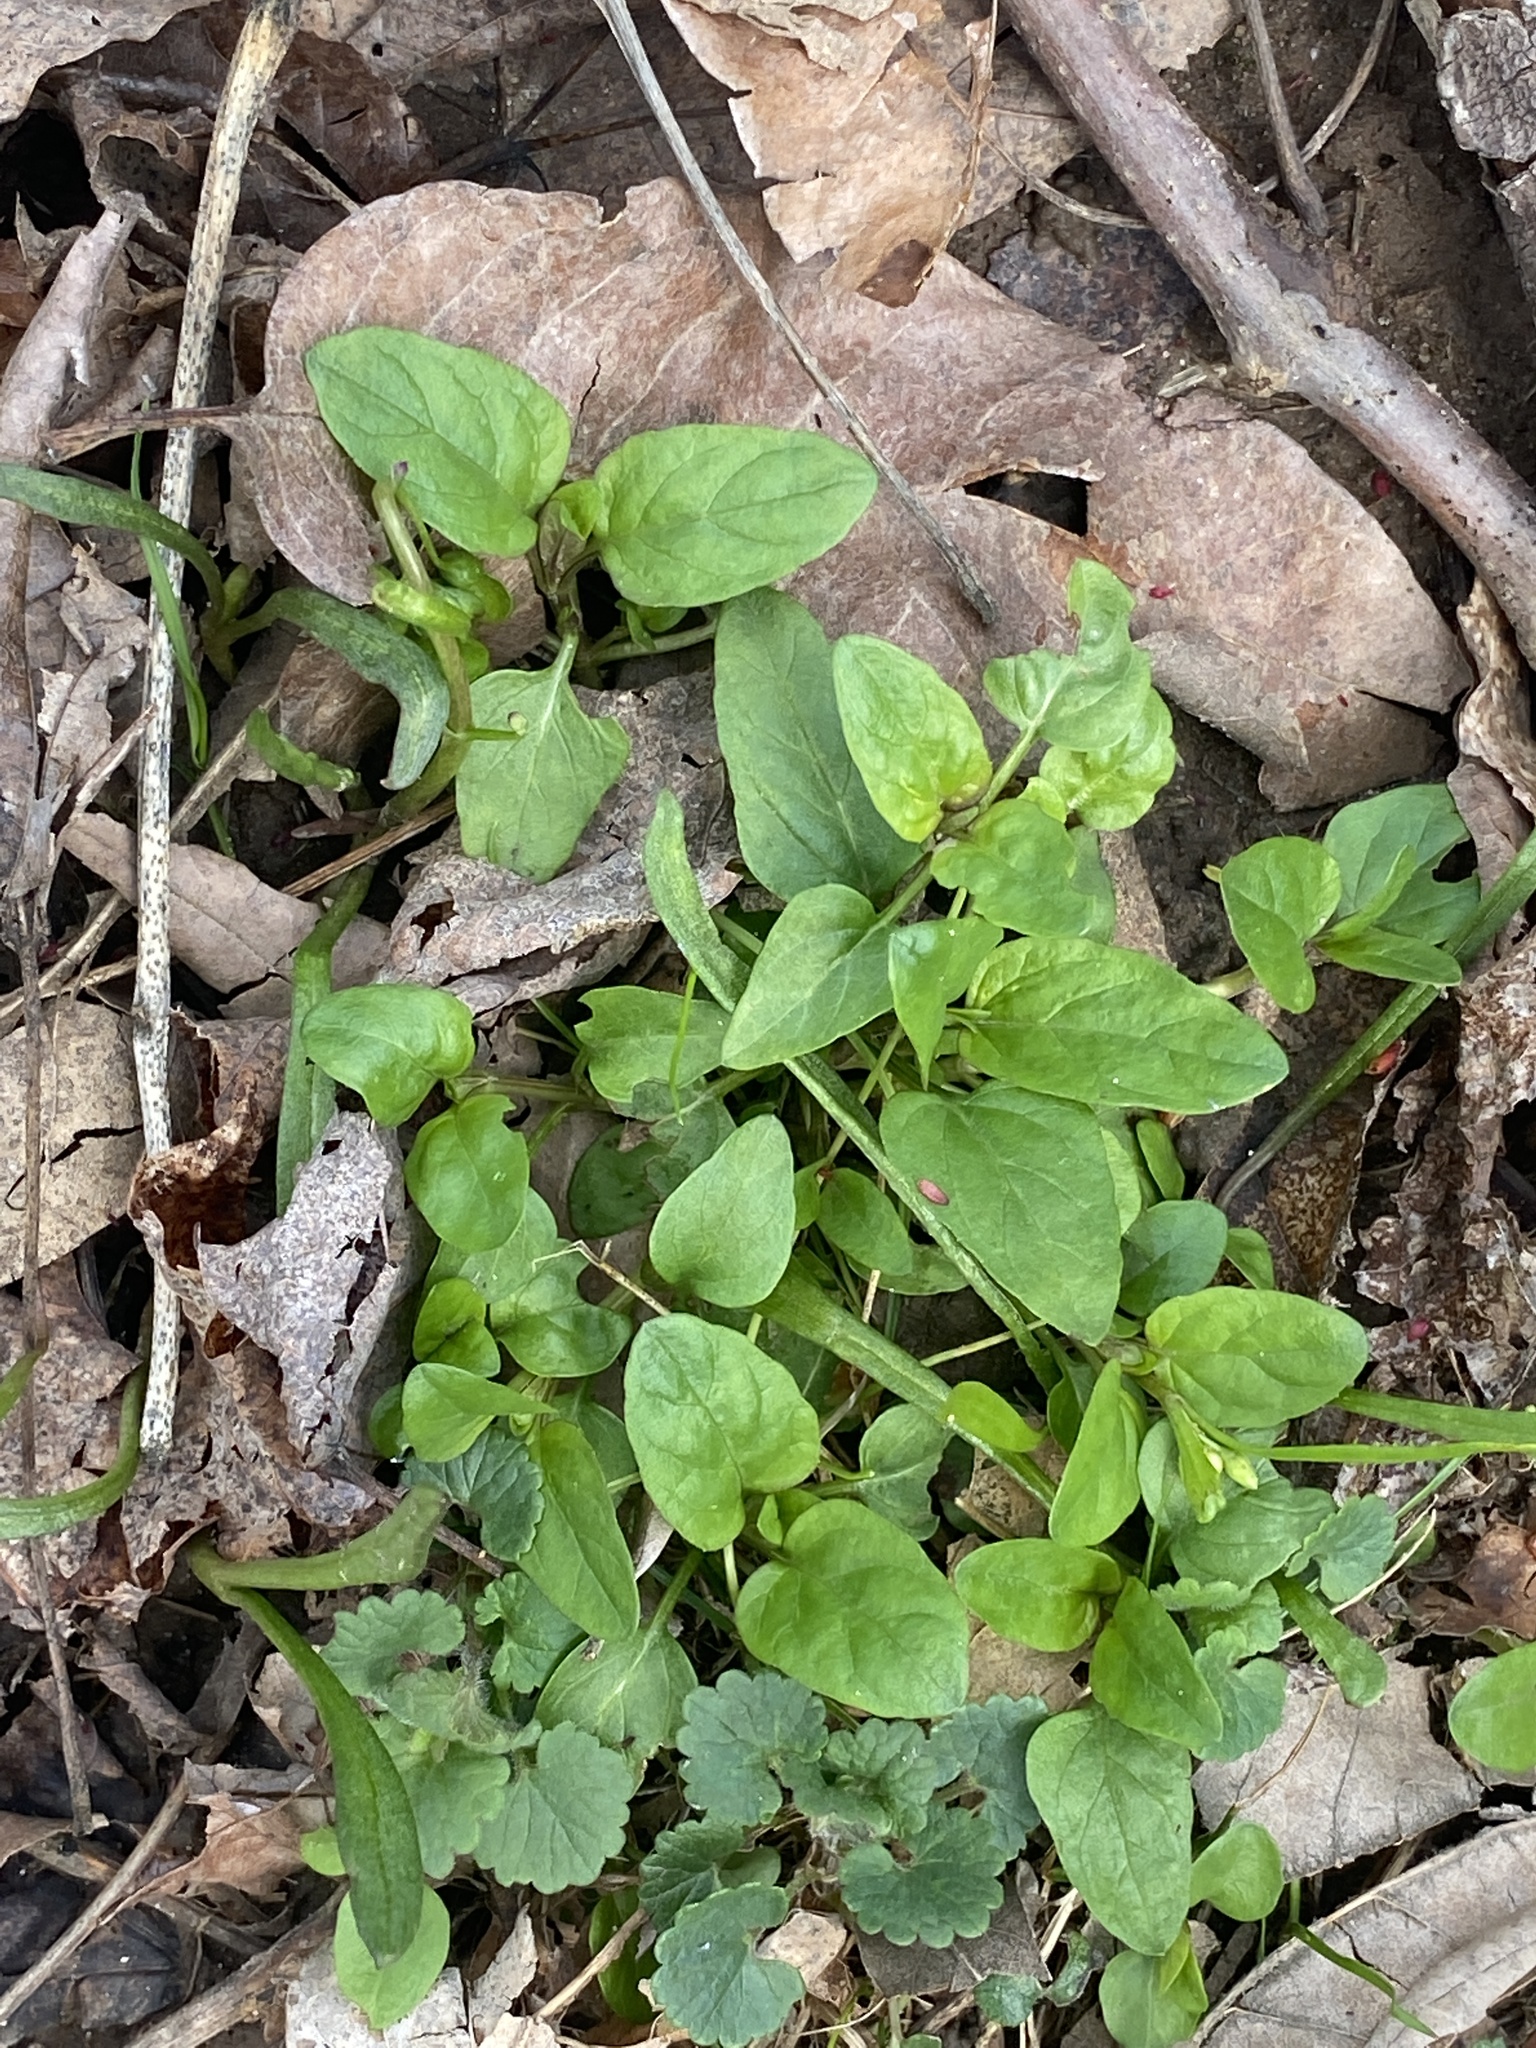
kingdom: Plantae
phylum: Tracheophyta
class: Magnoliopsida
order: Lamiales
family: Lamiaceae
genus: Prunella
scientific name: Prunella vulgaris
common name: Heal-all
